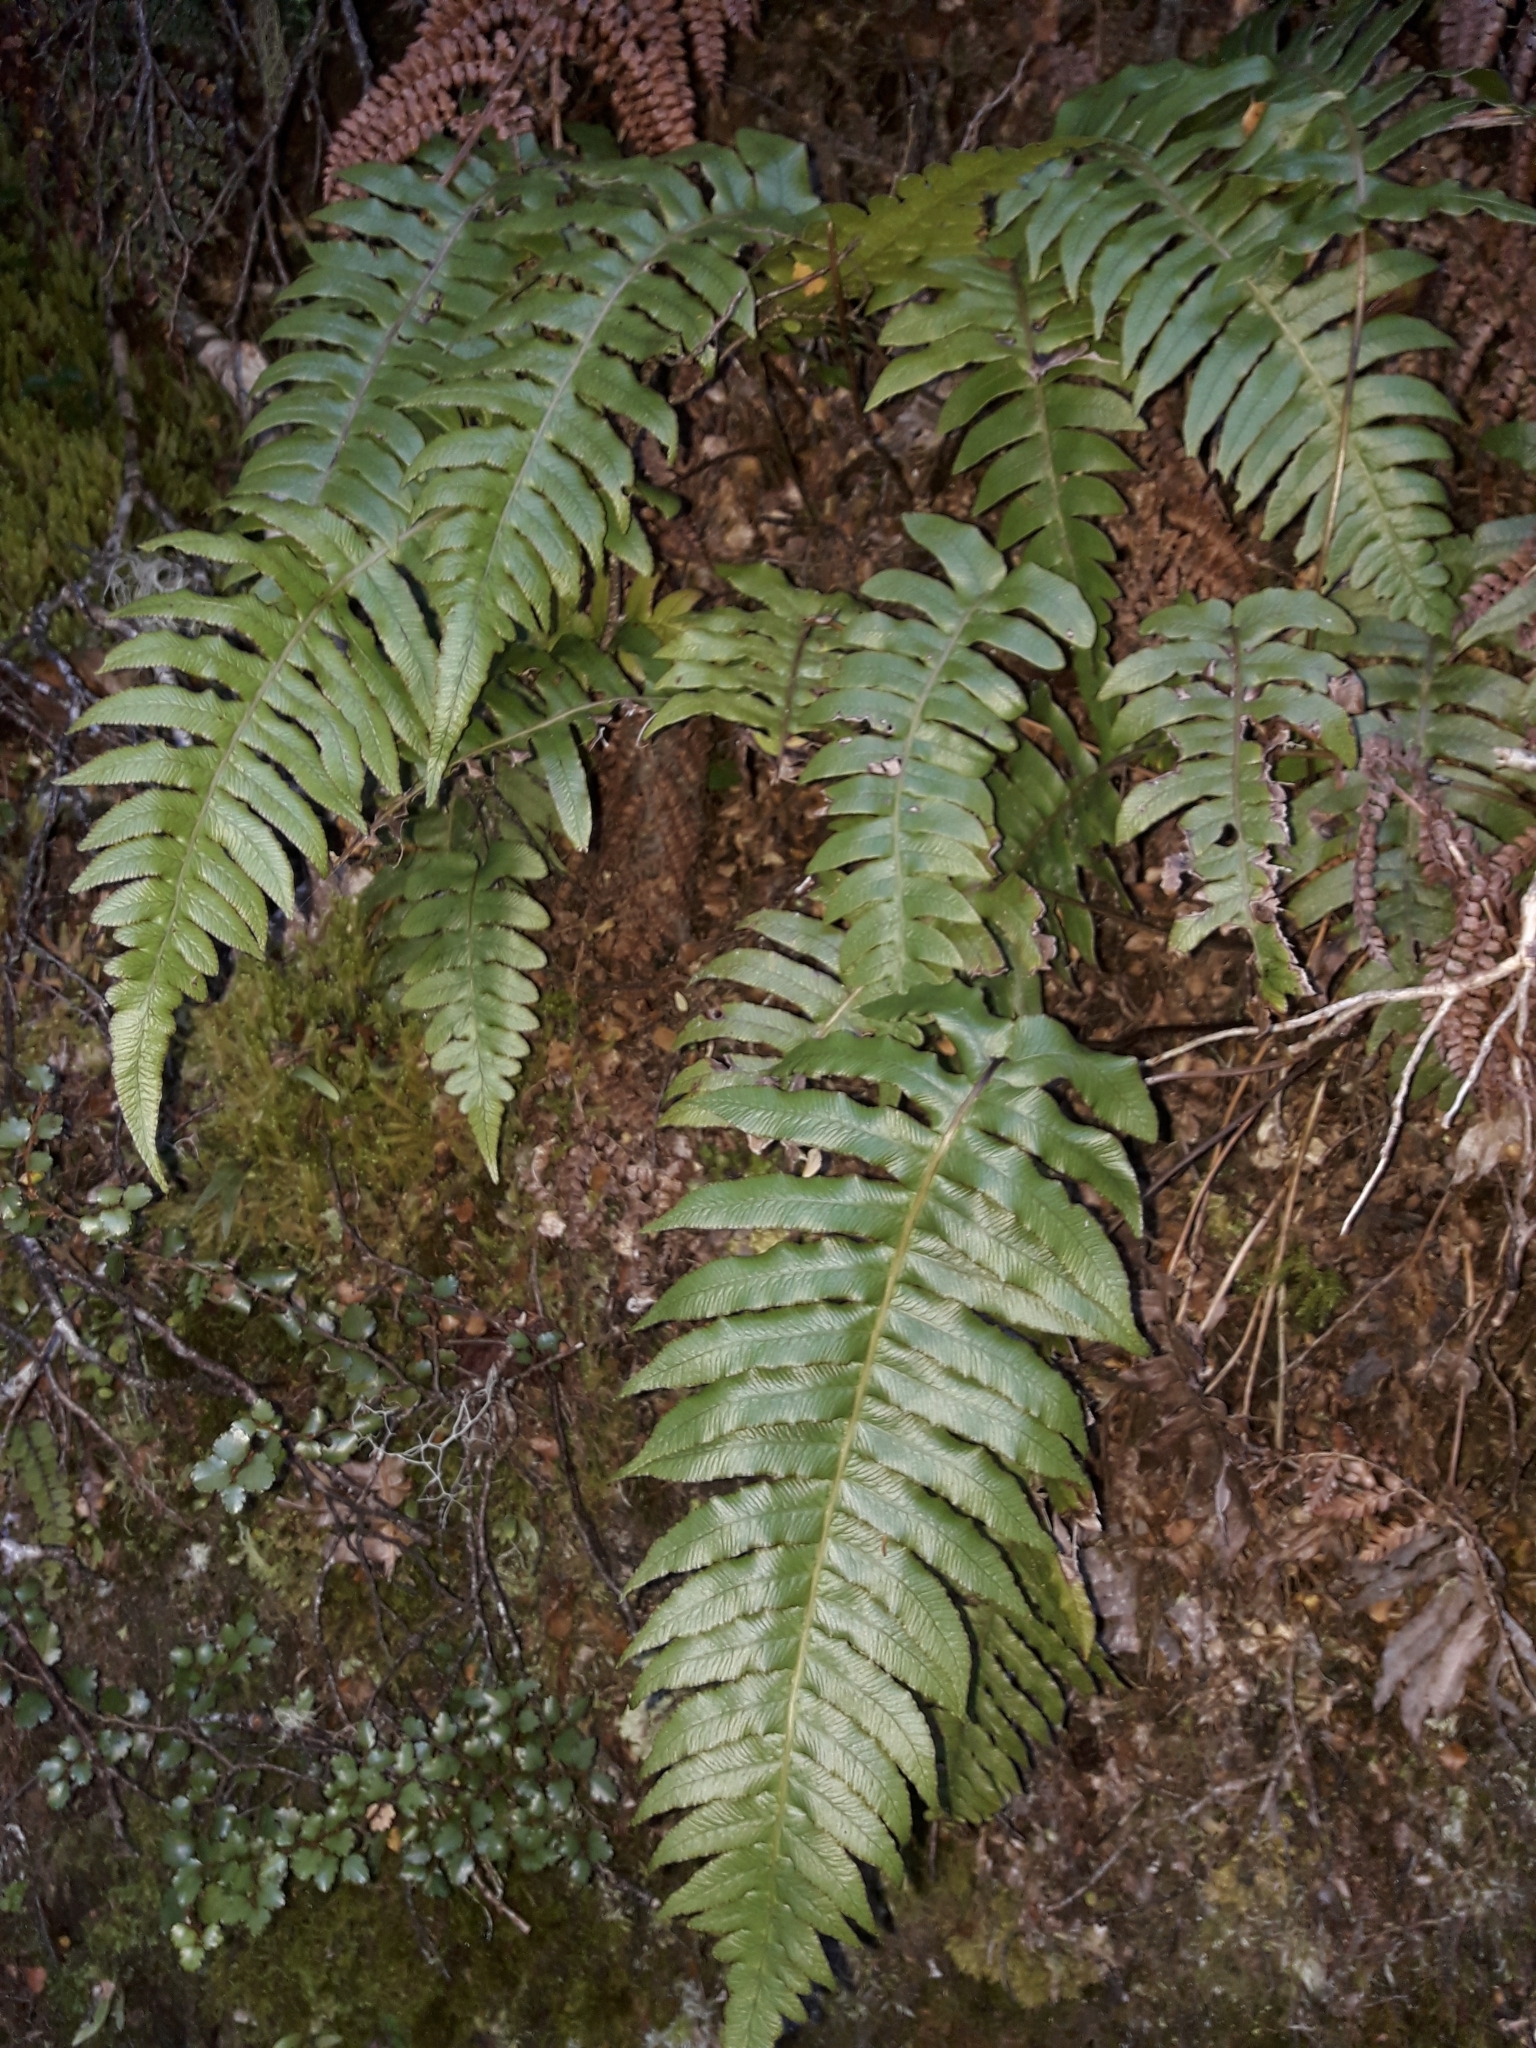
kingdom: Plantae
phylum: Tracheophyta
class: Polypodiopsida
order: Polypodiales
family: Blechnaceae
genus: Cranfillia
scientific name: Cranfillia deltoides
